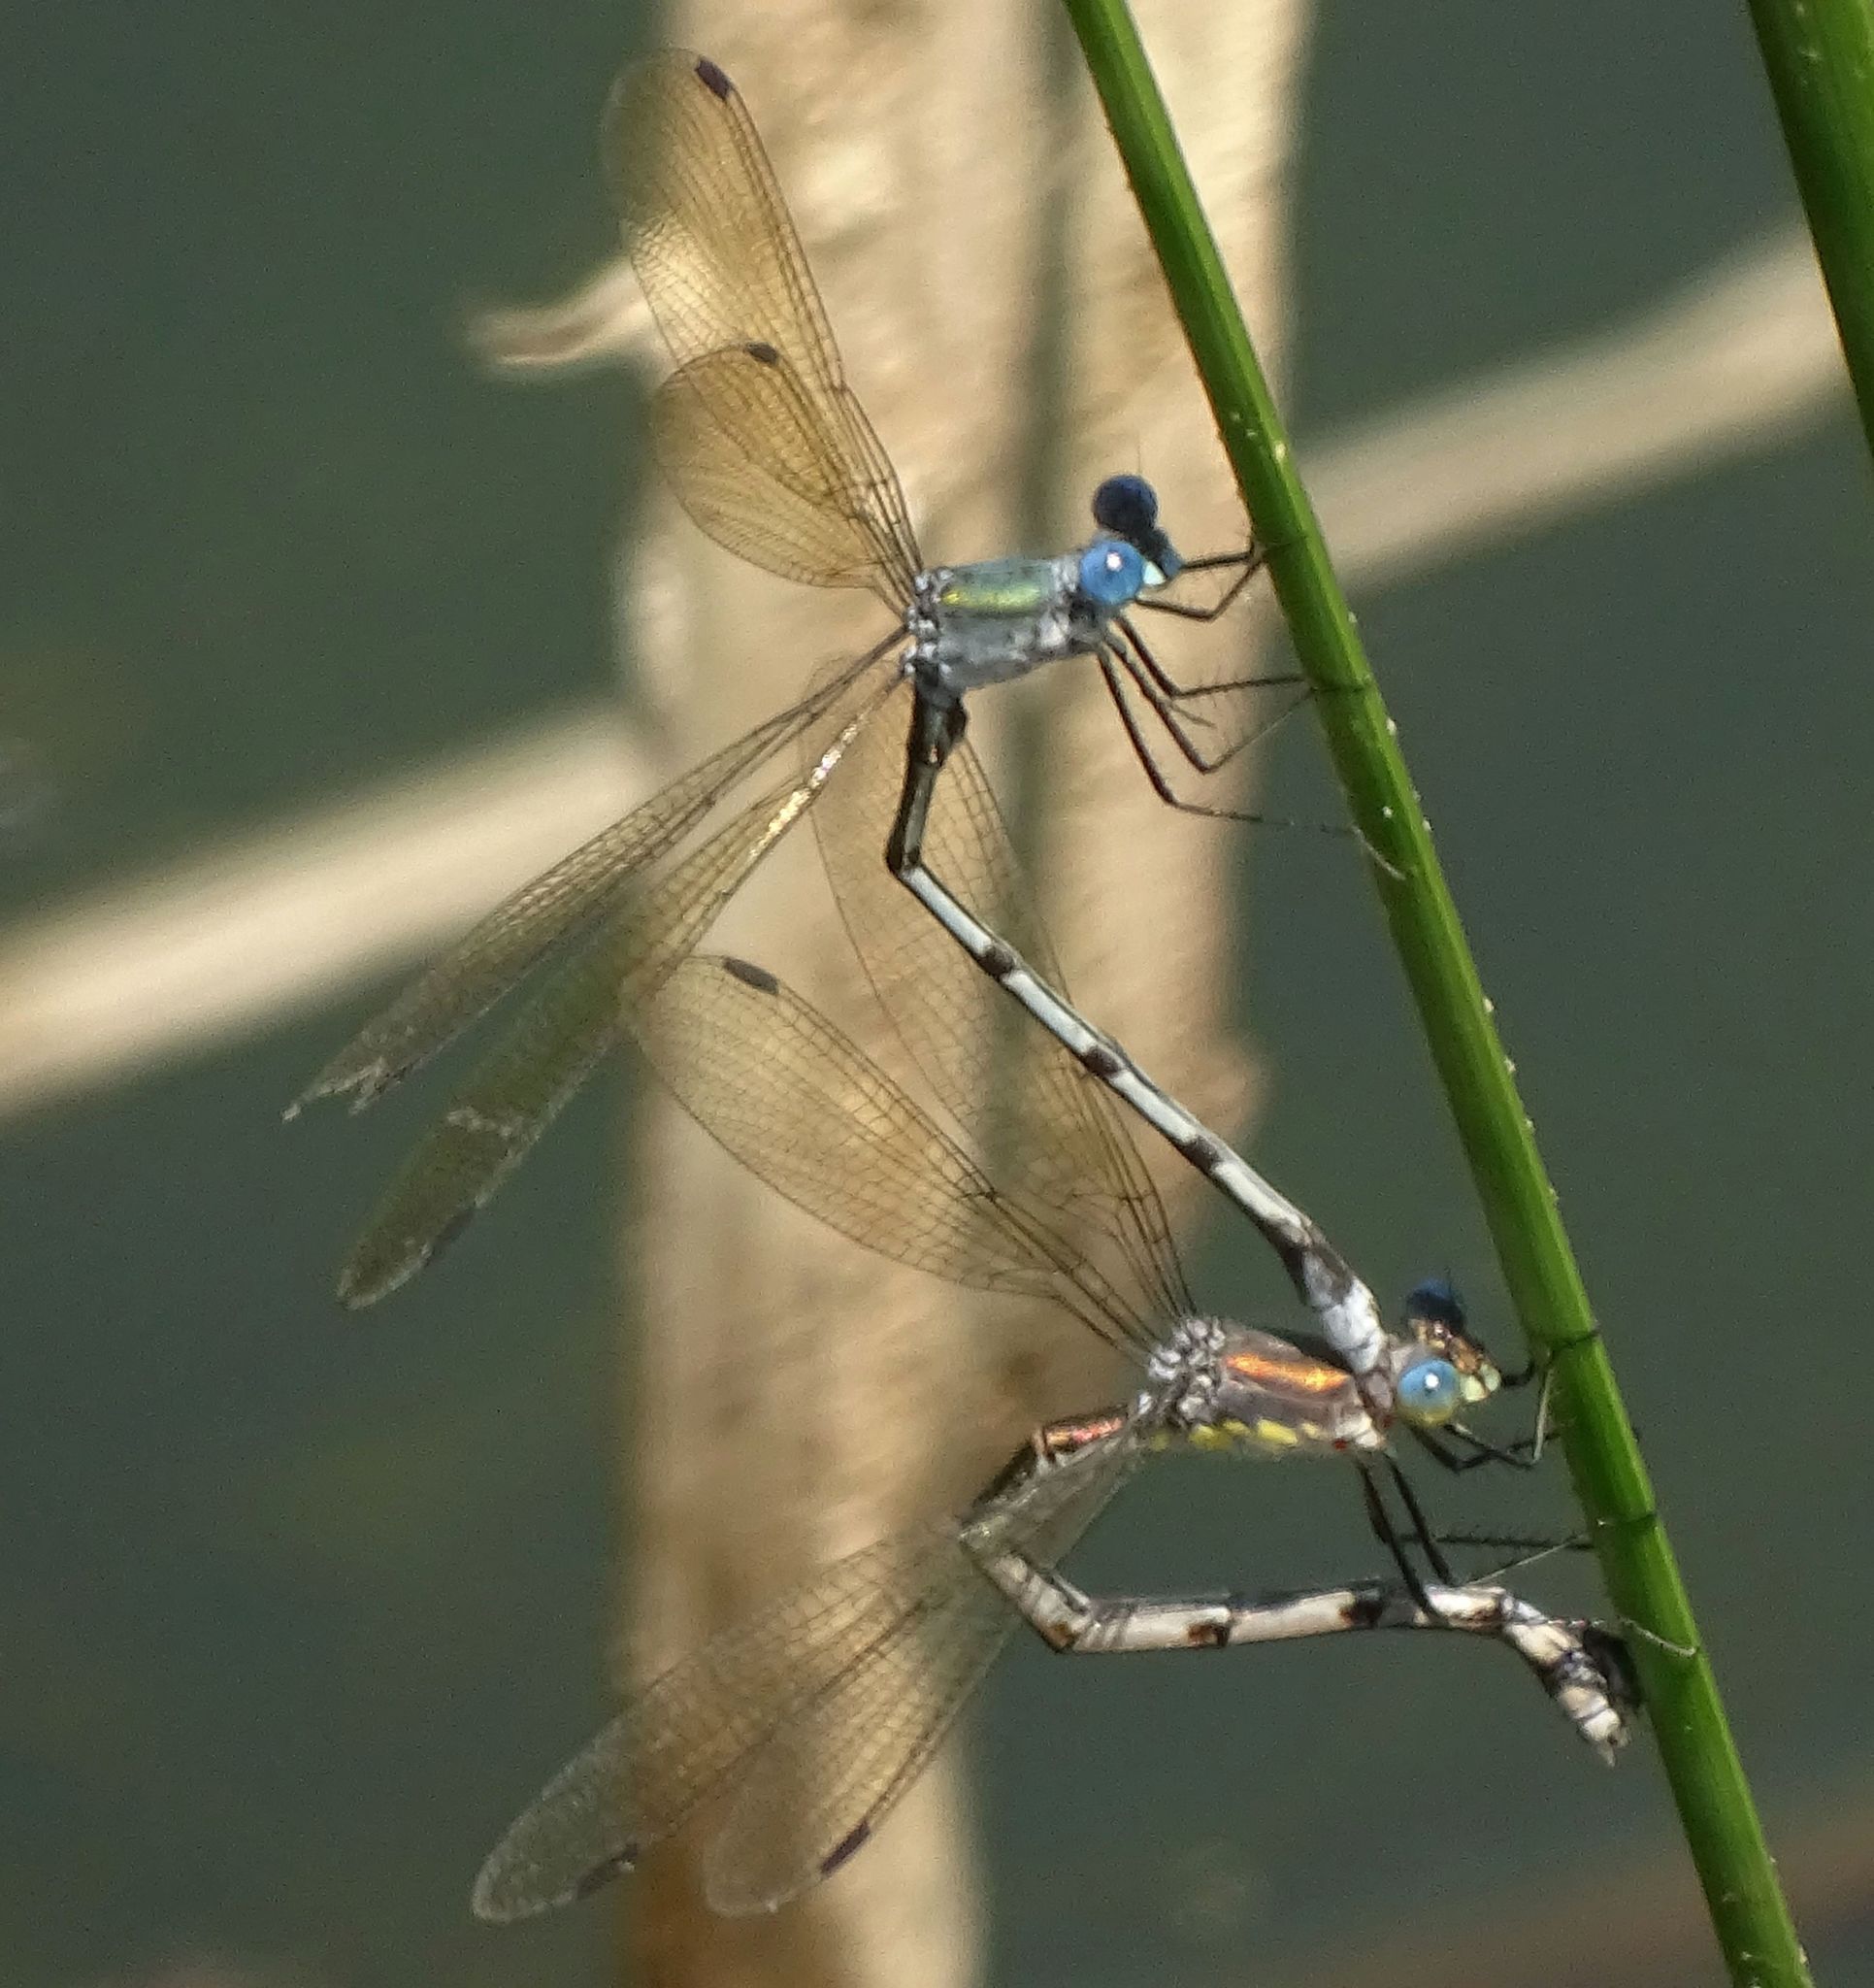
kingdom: Animalia
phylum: Arthropoda
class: Insecta
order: Odonata
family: Lestidae
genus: Lestes
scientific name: Lestes eurinus
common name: Amber-winged spreadwing
